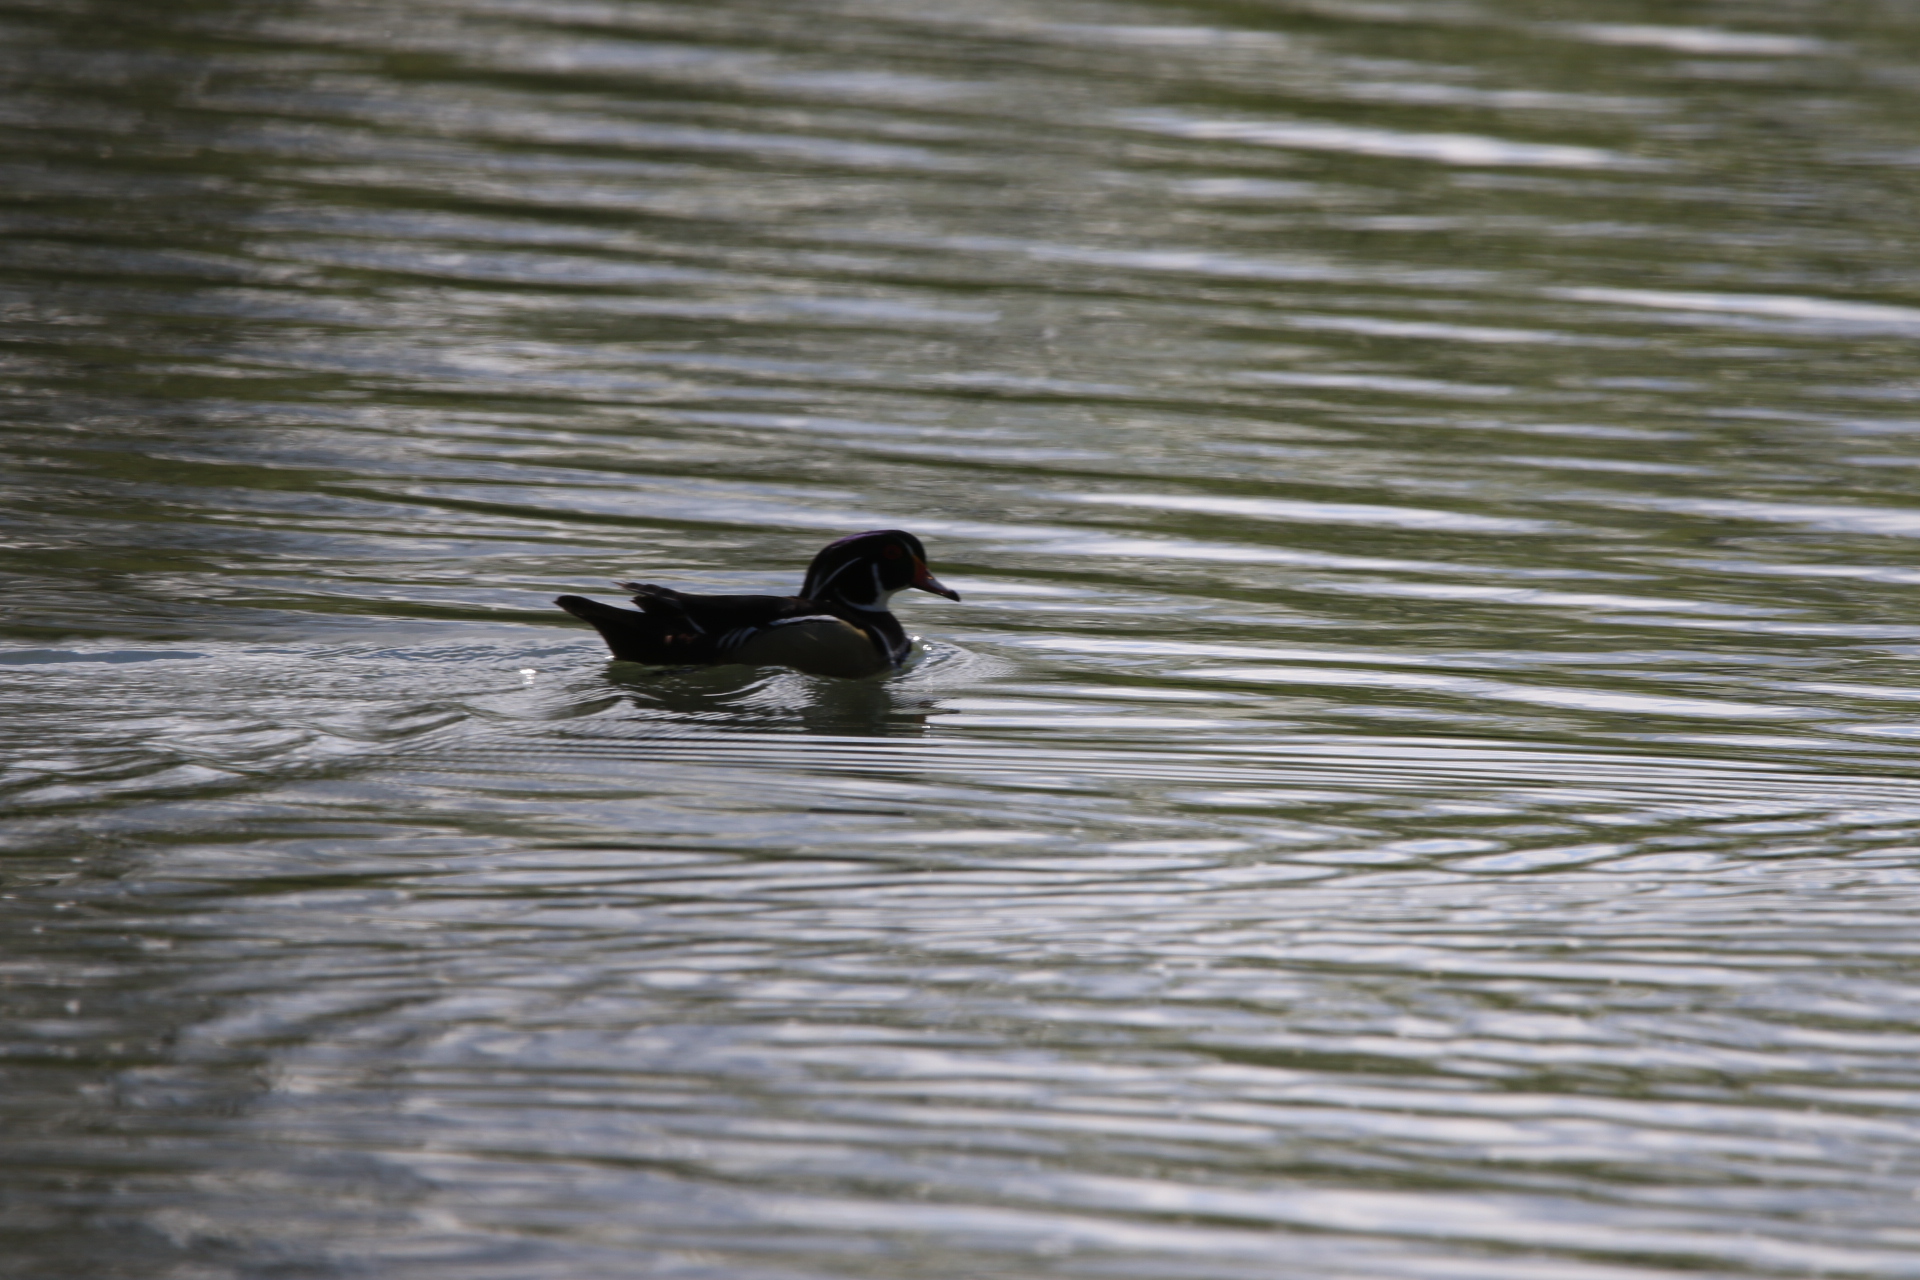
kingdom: Animalia
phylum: Chordata
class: Aves
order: Anseriformes
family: Anatidae
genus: Aix
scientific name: Aix sponsa
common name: Wood duck
